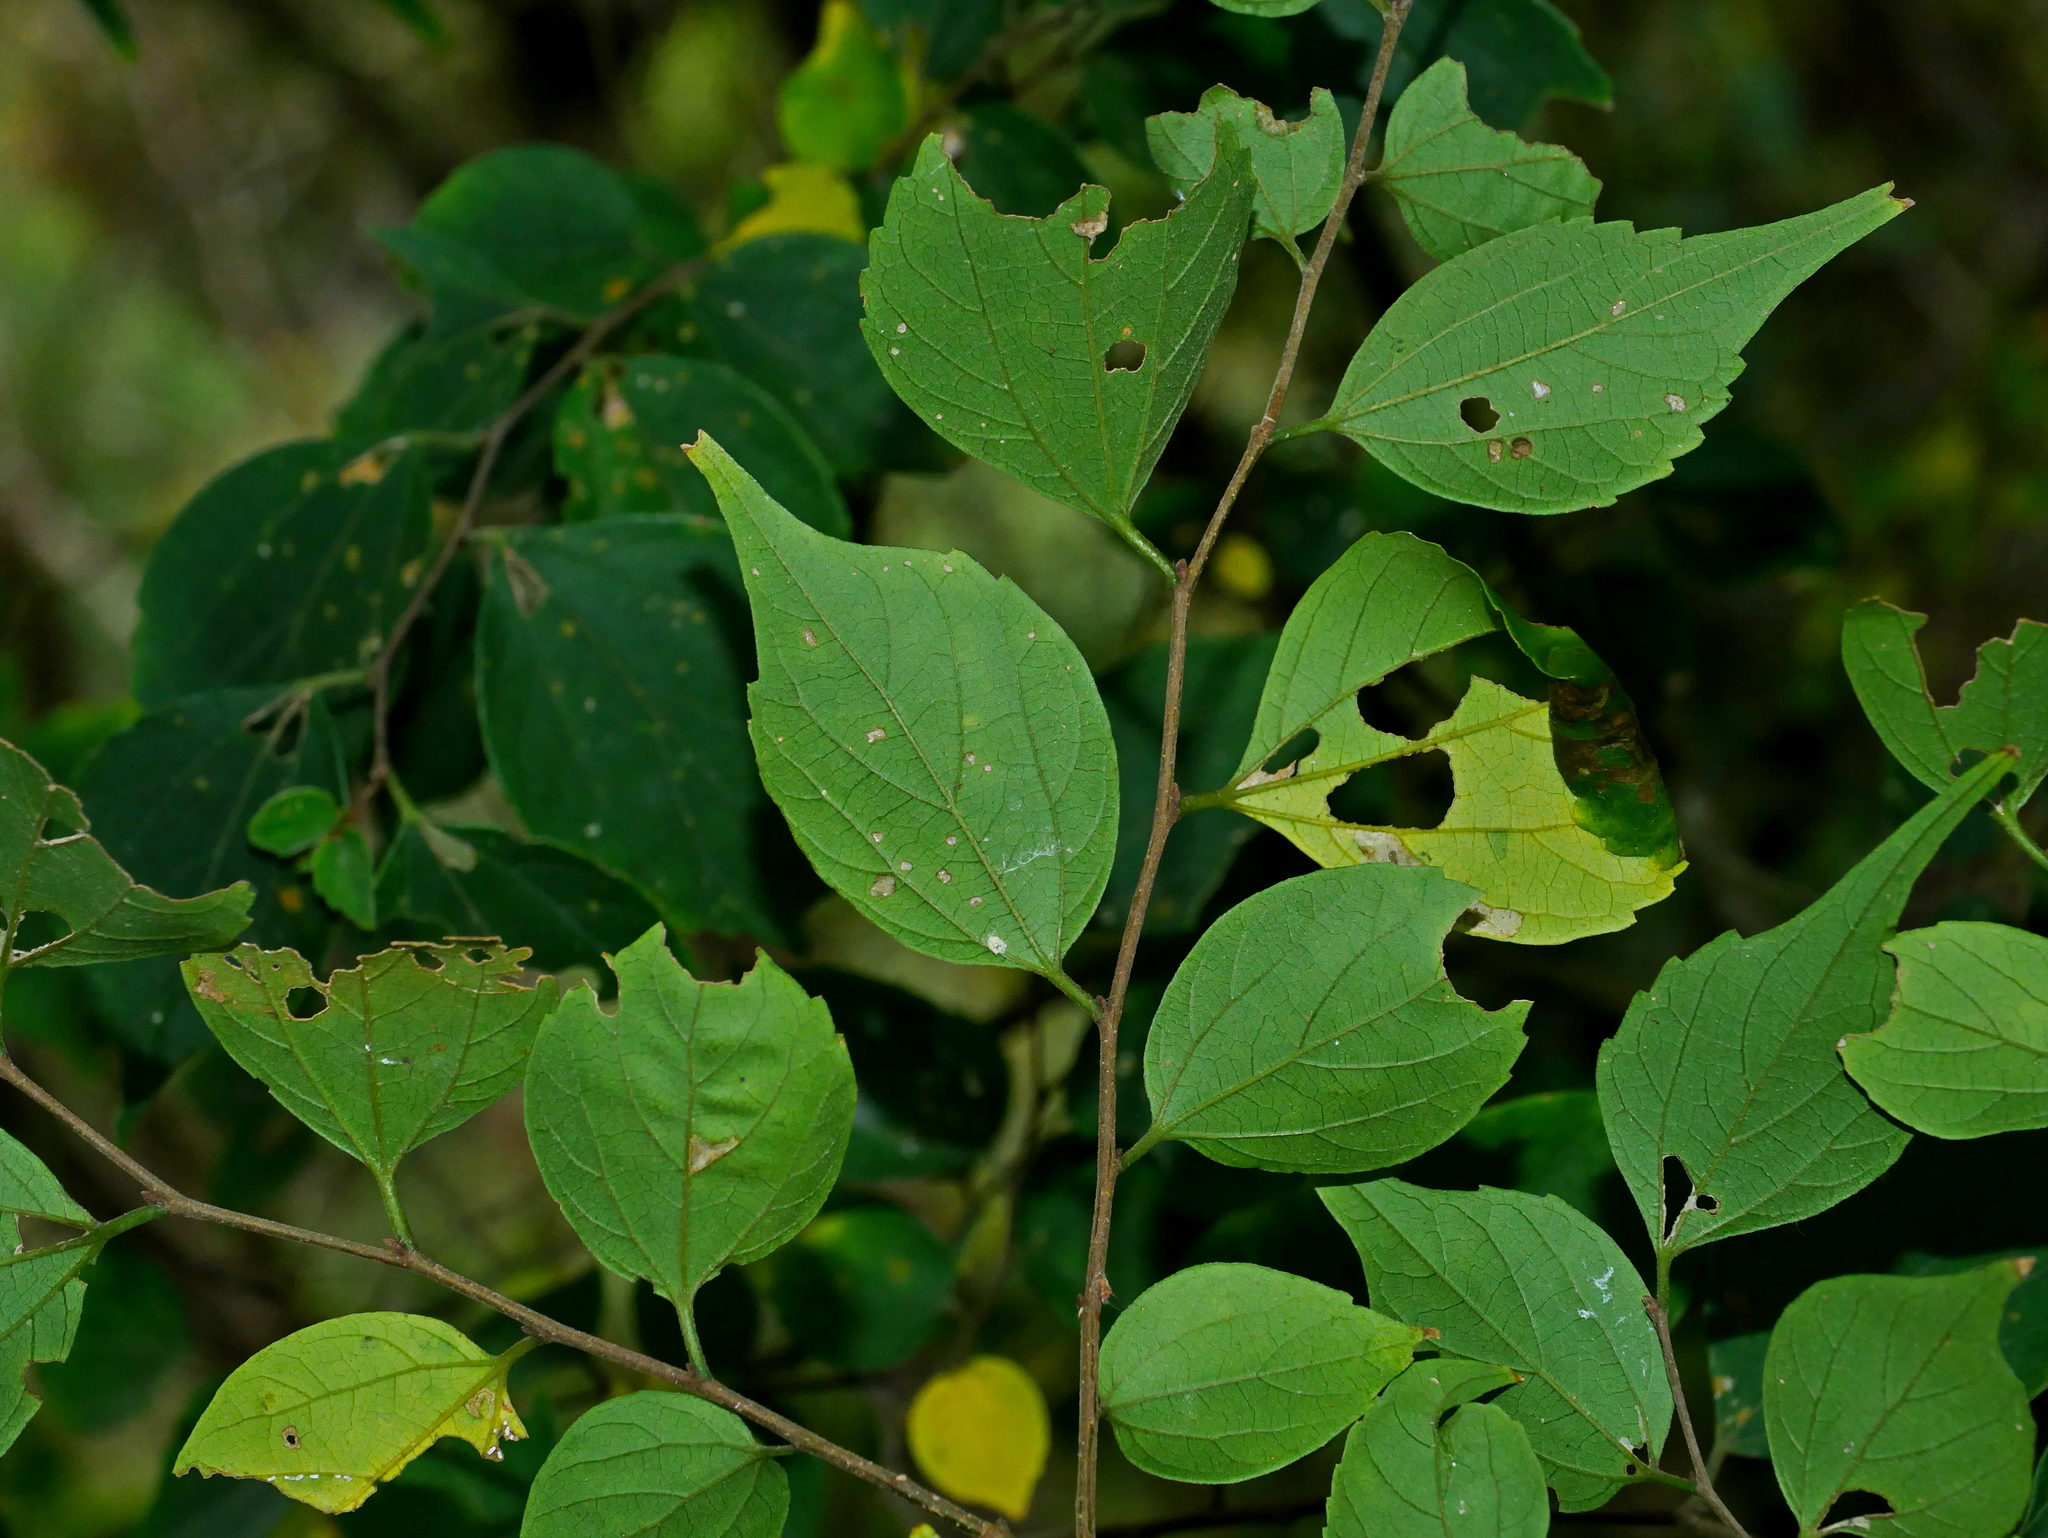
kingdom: Plantae
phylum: Tracheophyta
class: Magnoliopsida
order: Rosales
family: Cannabaceae
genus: Celtis
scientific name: Celtis biondii
